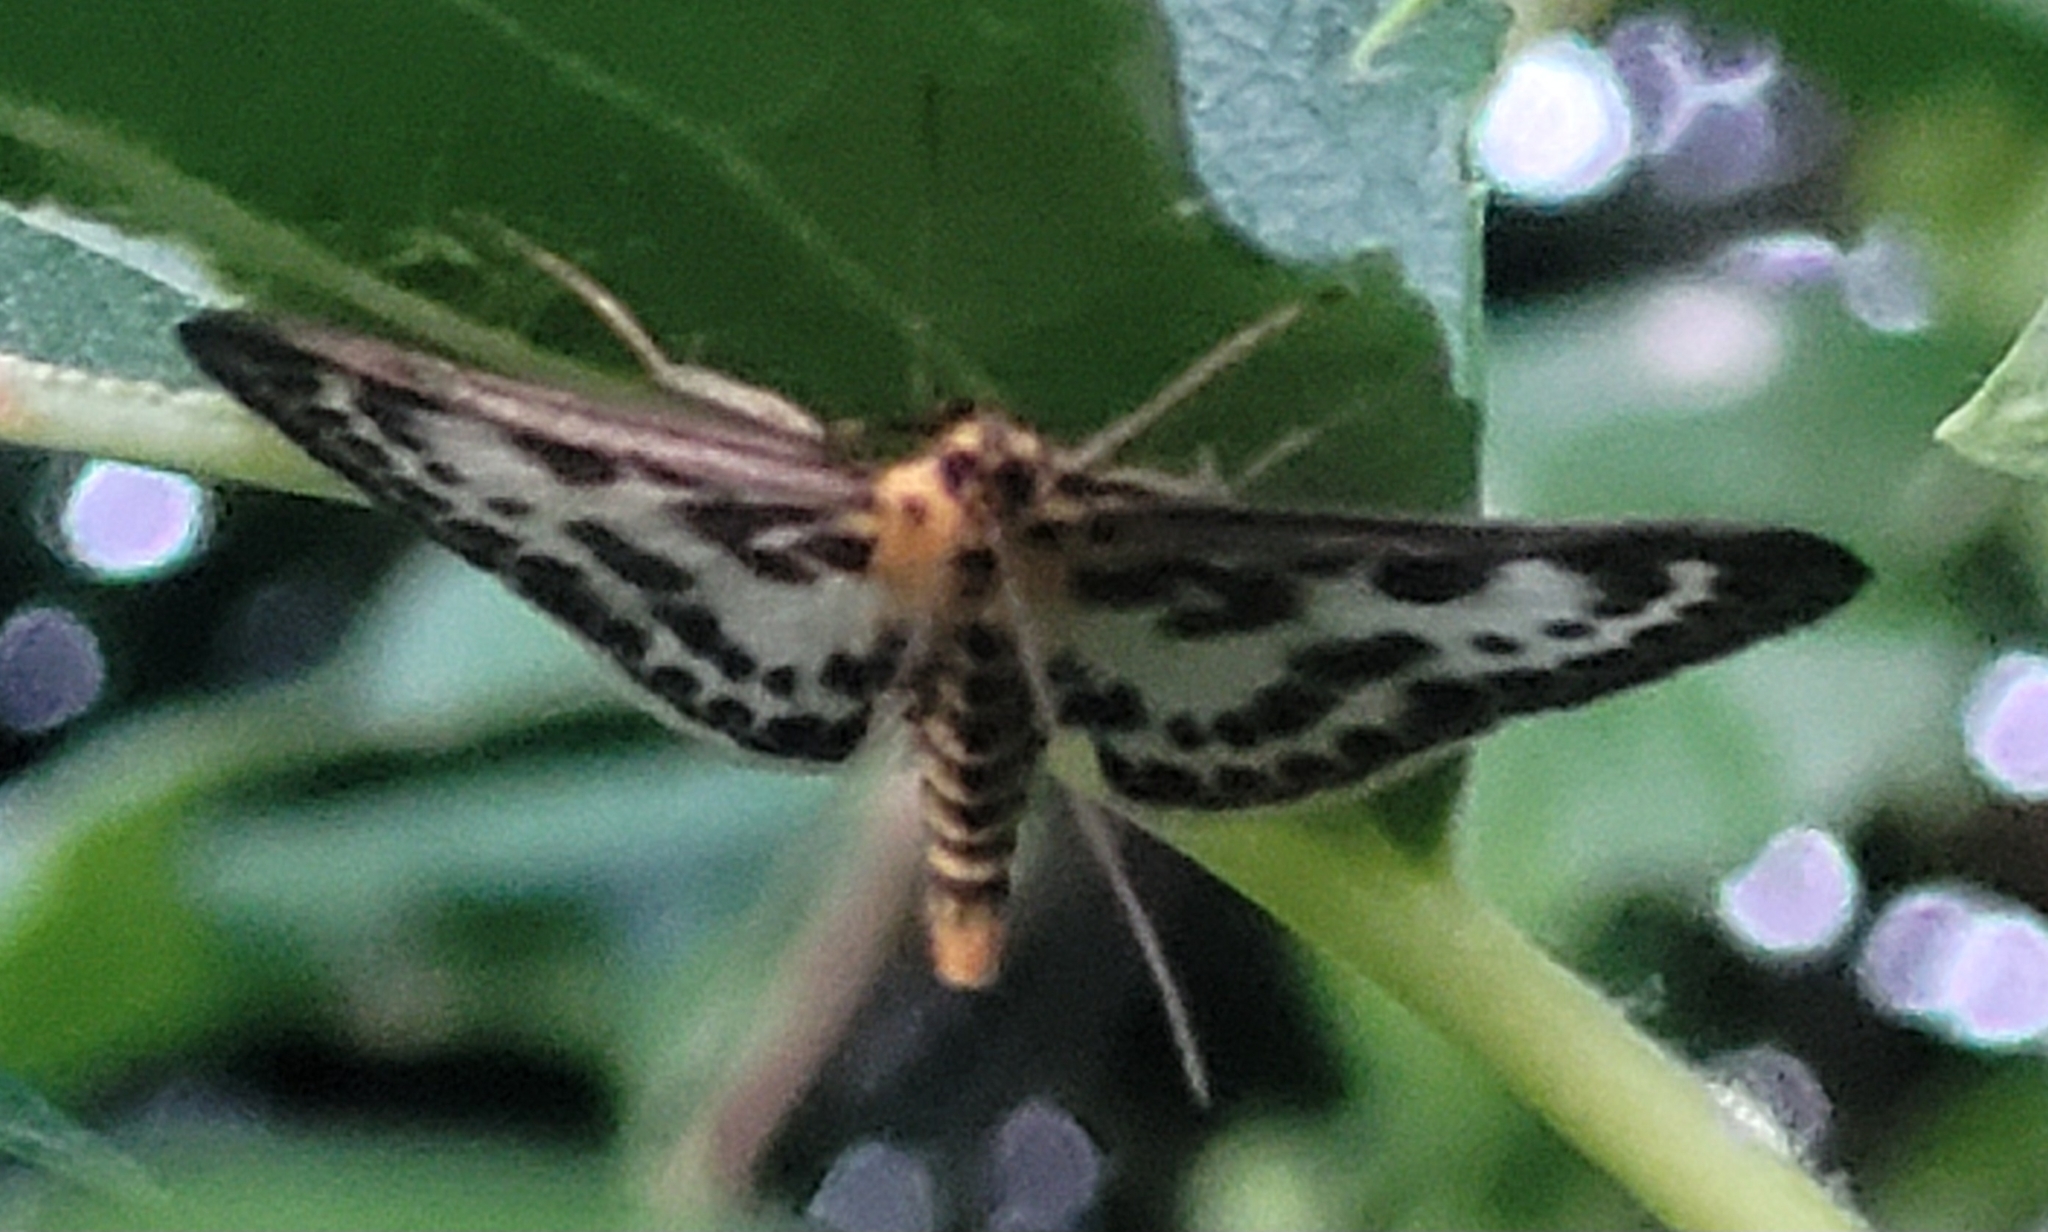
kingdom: Animalia
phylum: Arthropoda
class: Insecta
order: Lepidoptera
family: Crambidae
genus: Anania
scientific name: Anania hortulata
